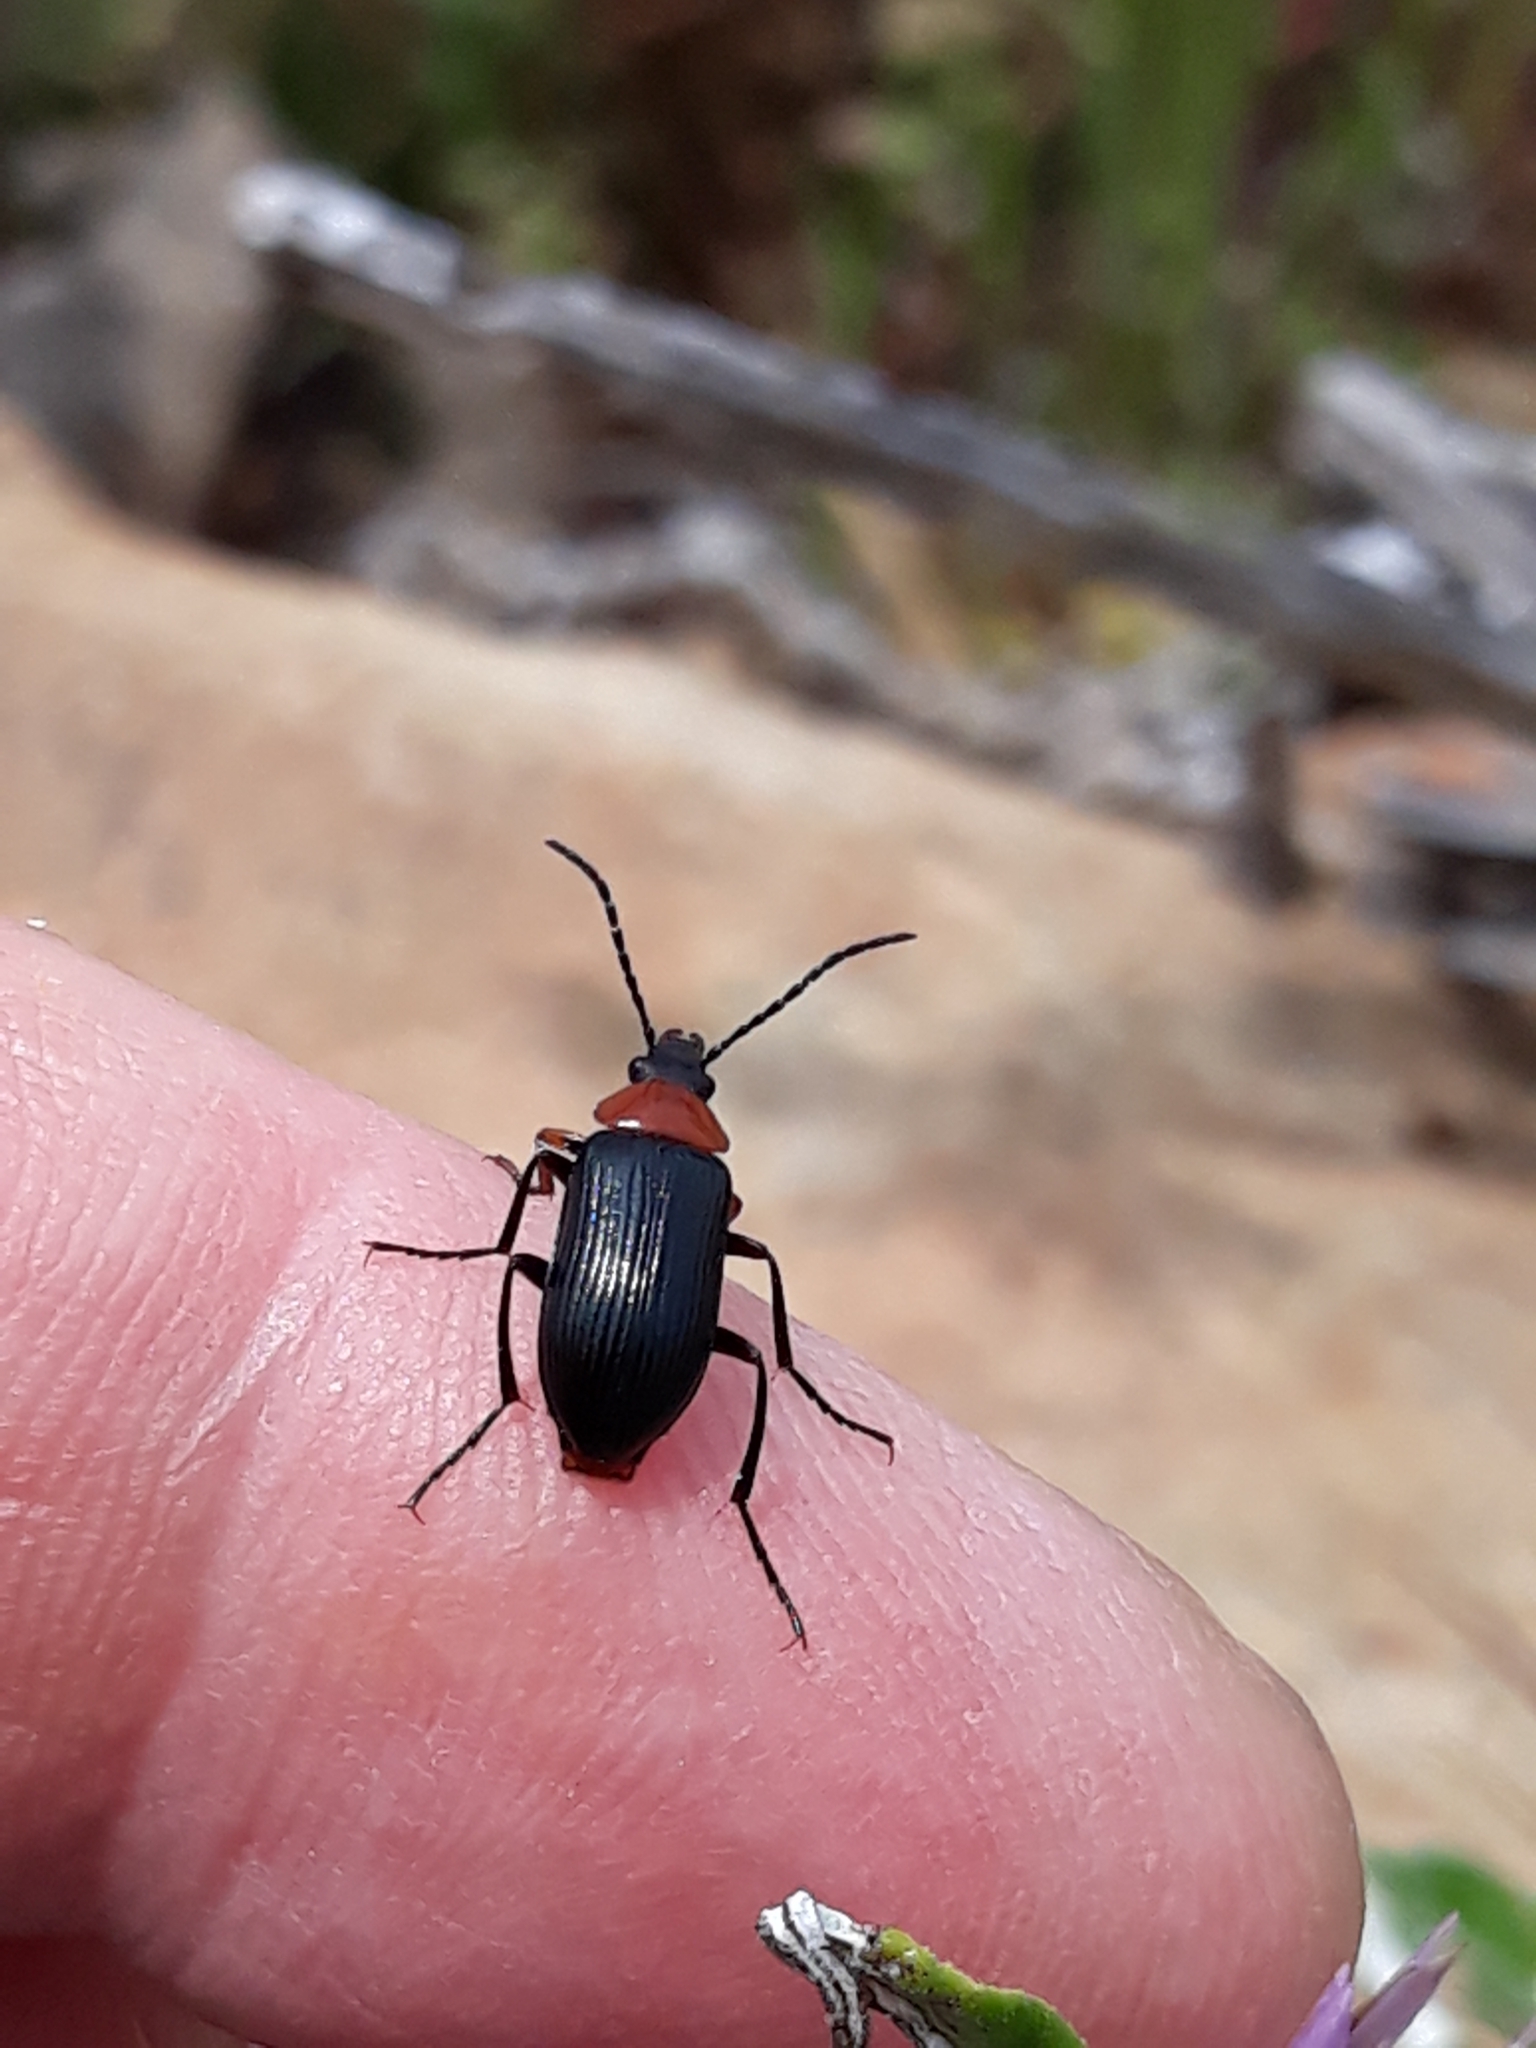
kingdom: Animalia
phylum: Arthropoda
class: Insecta
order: Coleoptera
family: Tenebrionidae
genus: Heliotaurus
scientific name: Heliotaurus ruficollis
